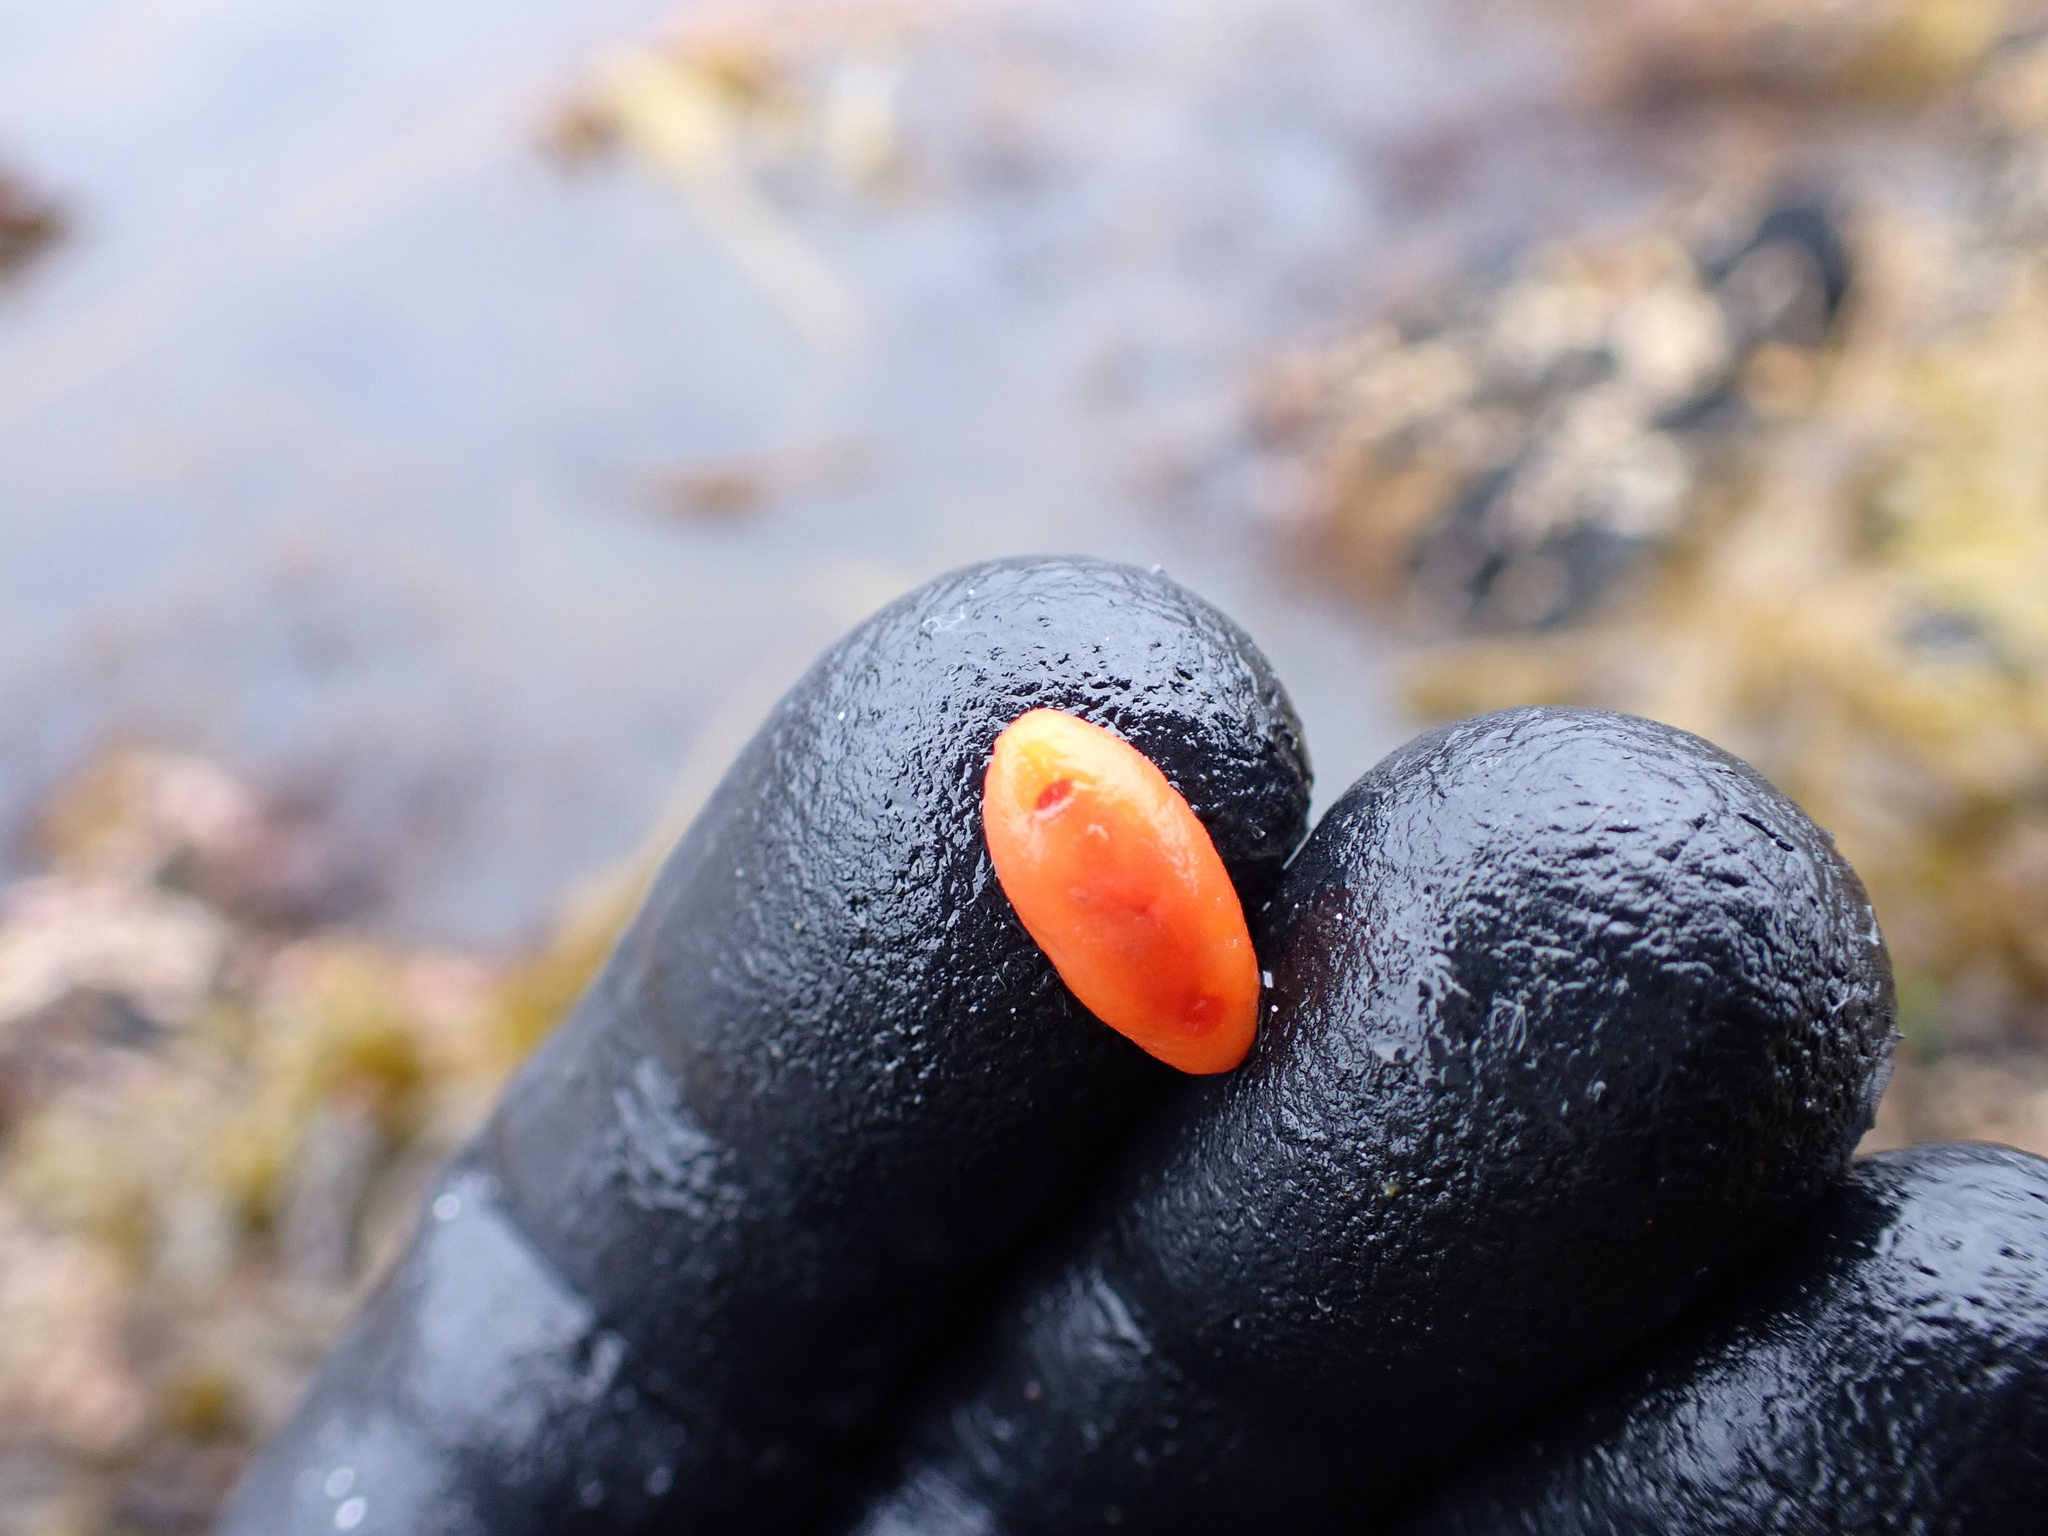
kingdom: Animalia
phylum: Mollusca
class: Gastropoda
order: Nudibranchia
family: Discodorididae
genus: Rostanga
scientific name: Rostanga pulchra
